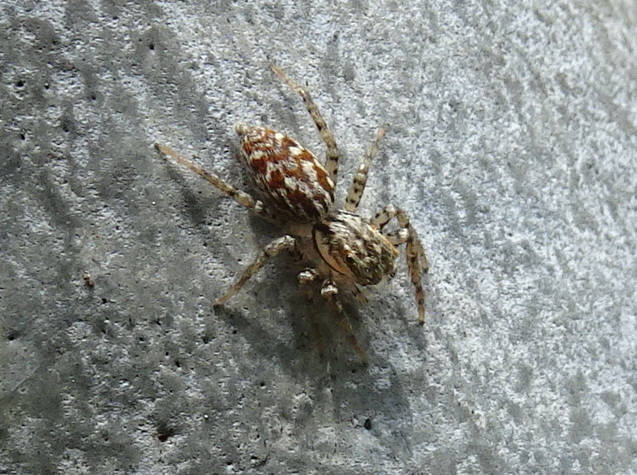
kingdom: Animalia
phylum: Arthropoda
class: Arachnida
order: Araneae
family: Salticidae
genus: Maevia
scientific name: Maevia inclemens
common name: Dimorphic jumper
